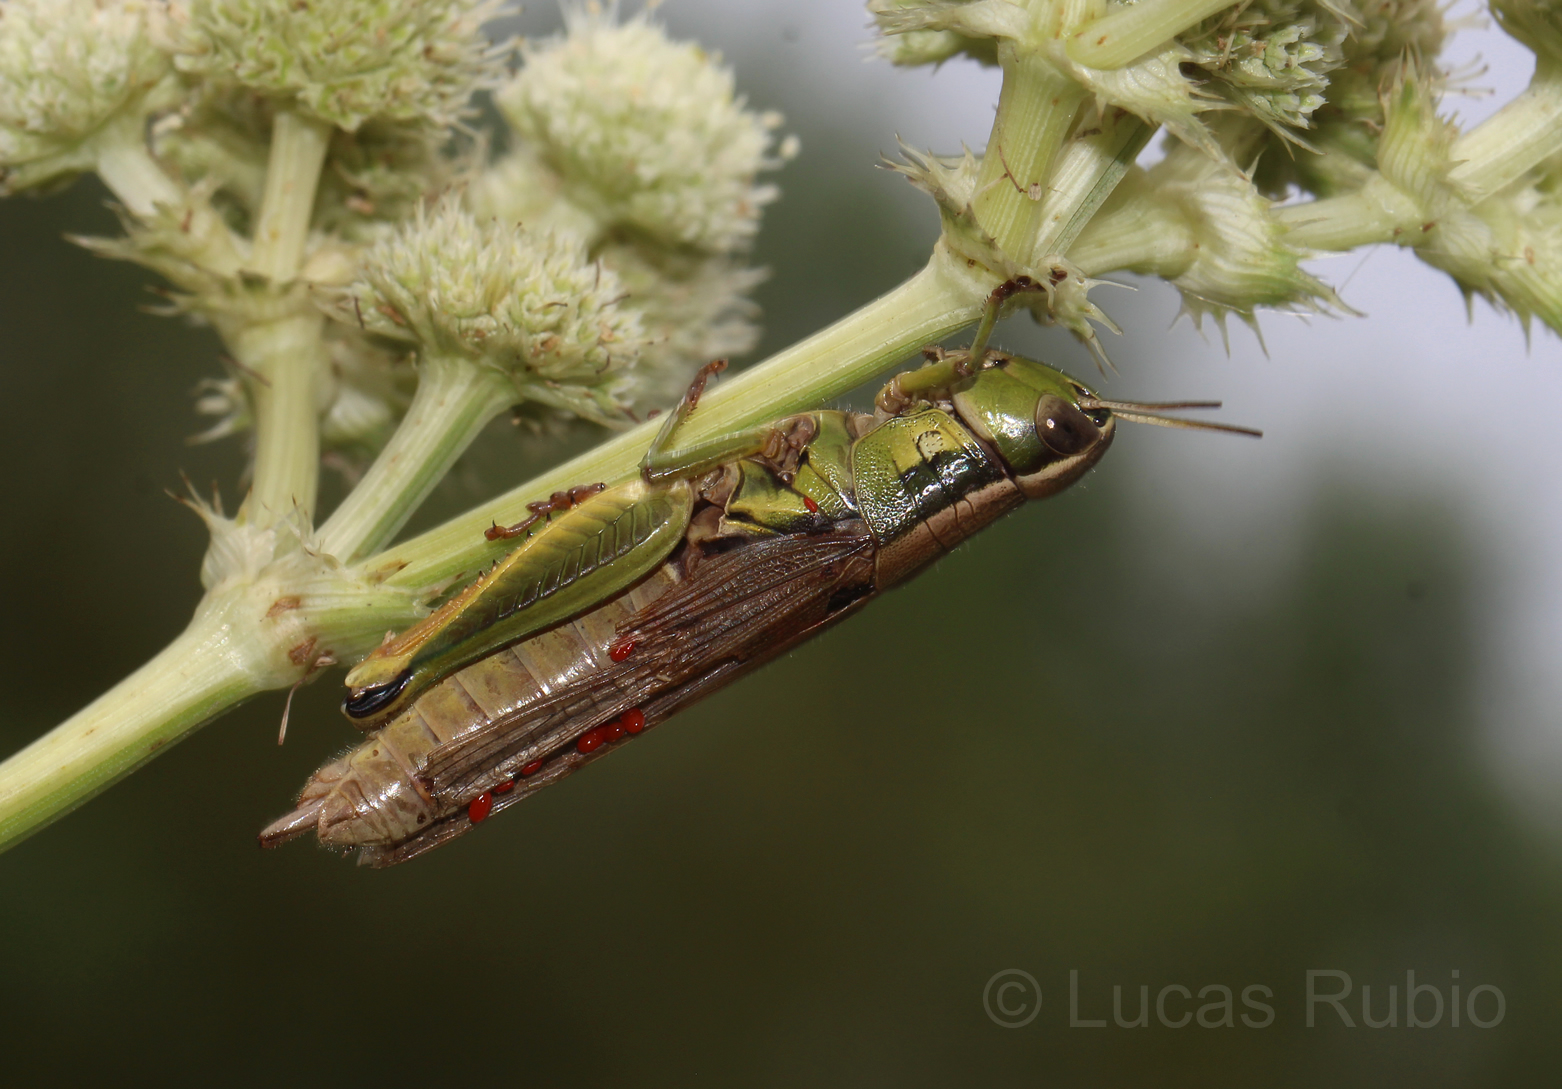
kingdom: Animalia
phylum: Arthropoda
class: Insecta
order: Orthoptera
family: Acrididae
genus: Scotussa
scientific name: Scotussa cliens
